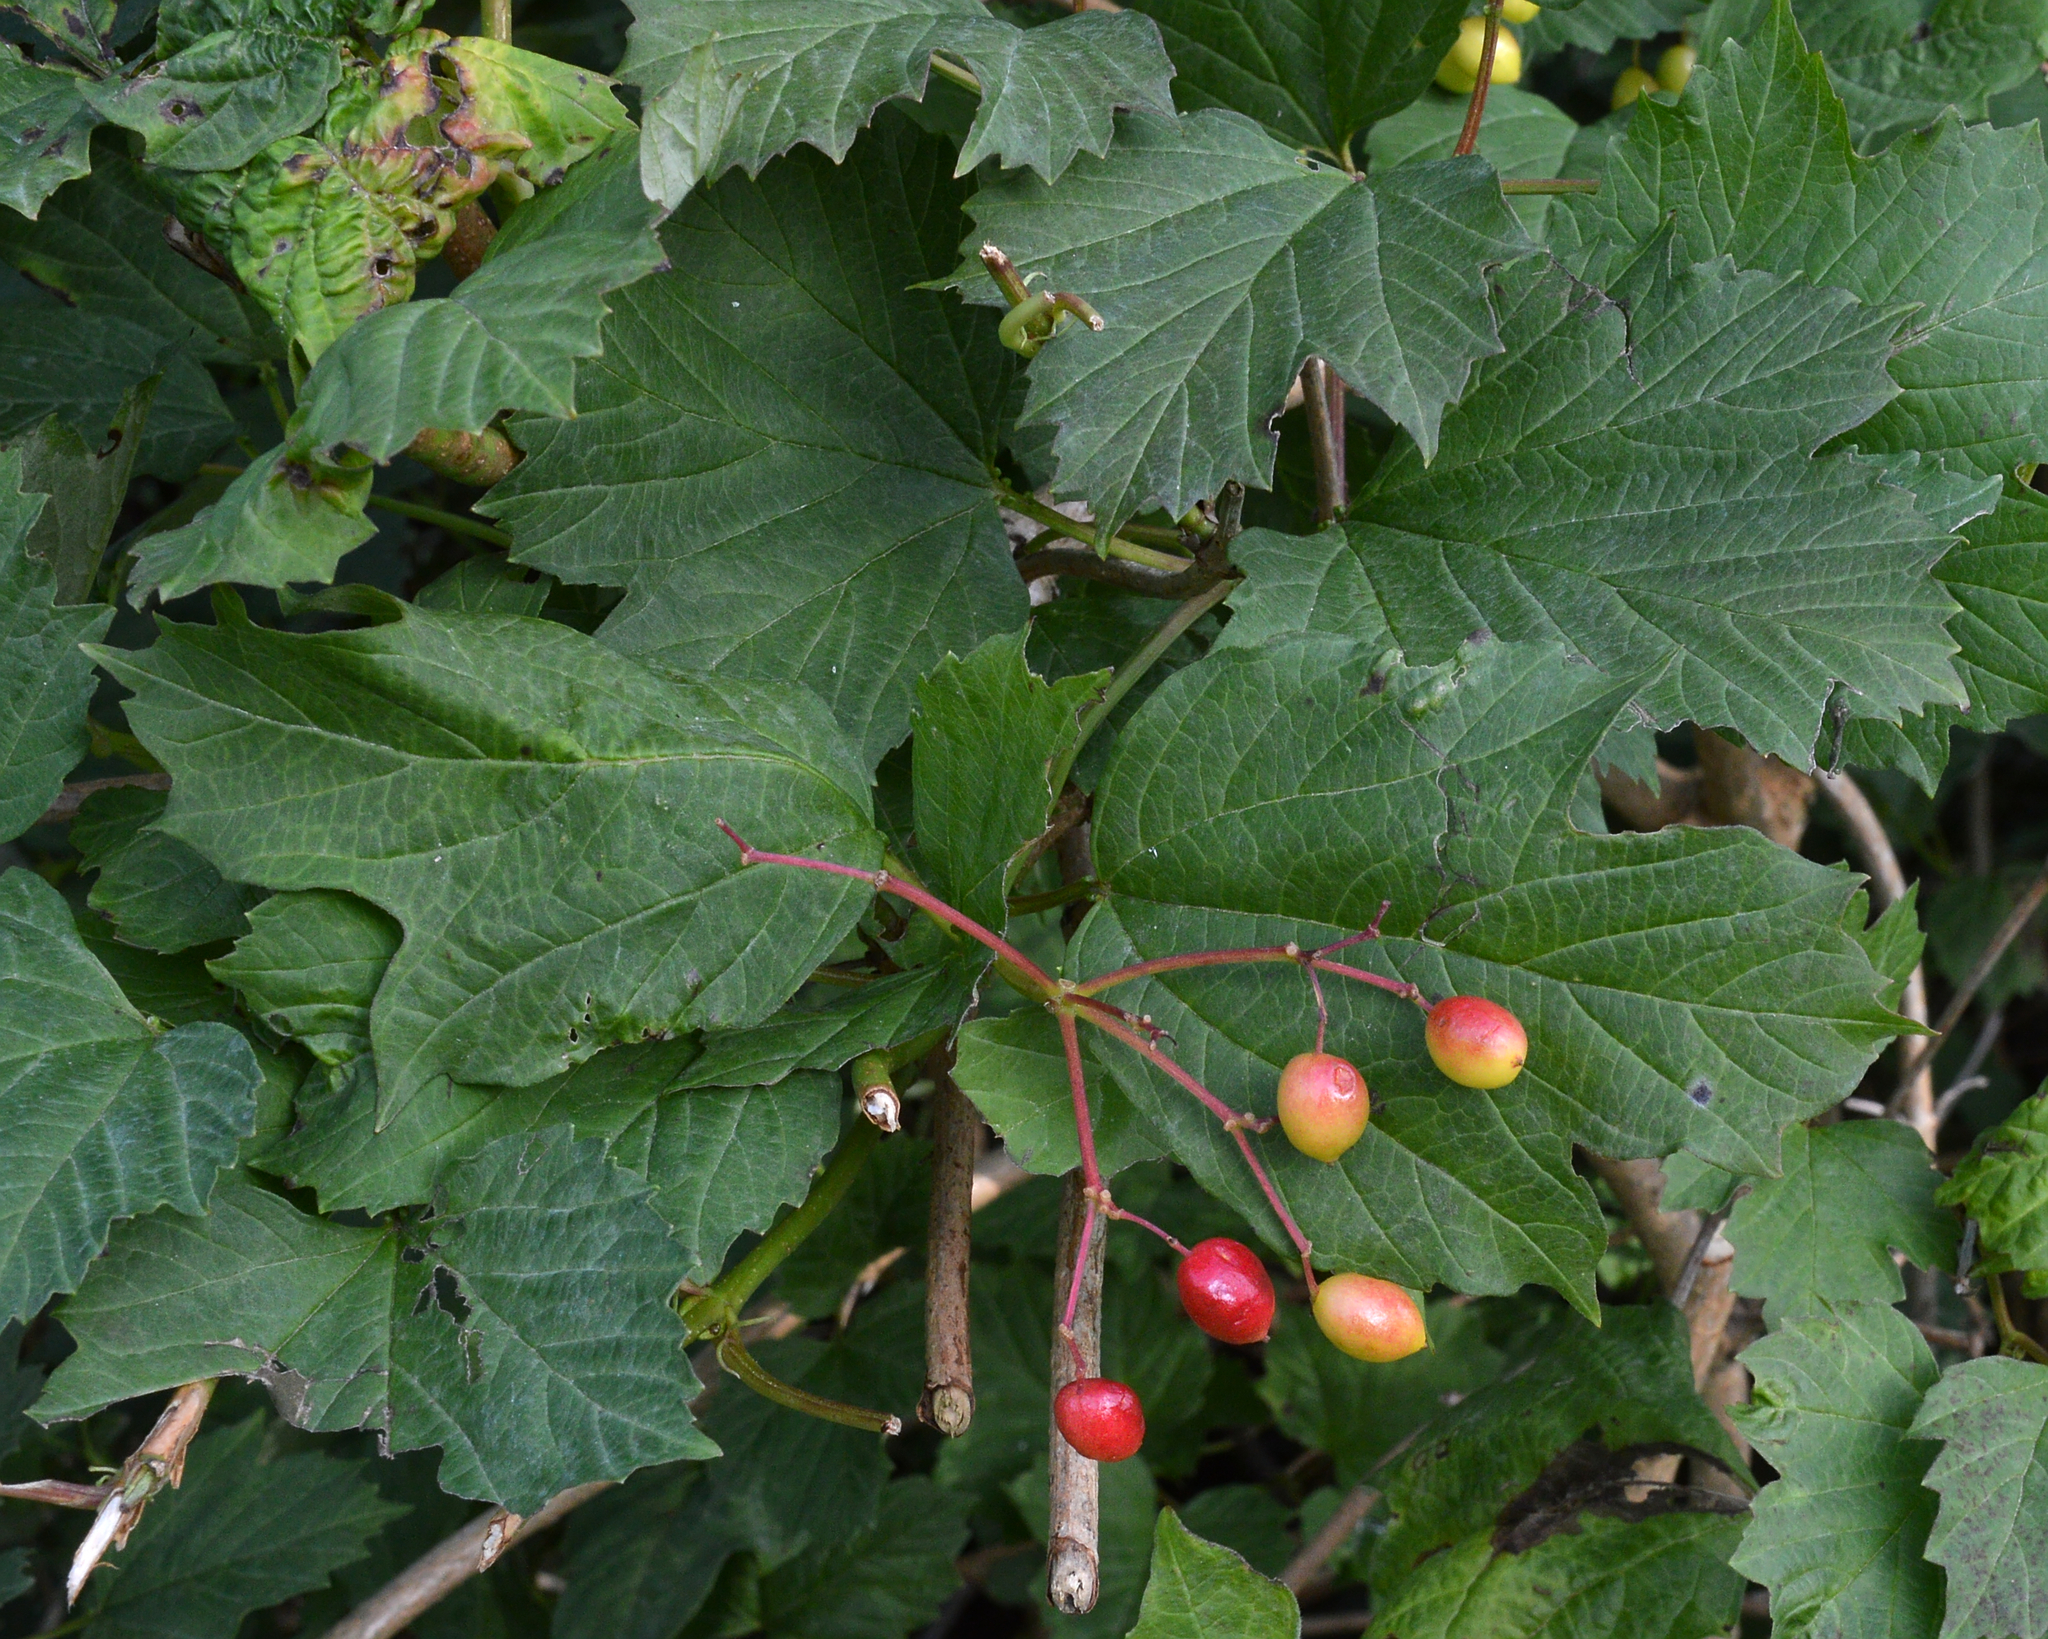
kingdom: Plantae
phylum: Tracheophyta
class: Magnoliopsida
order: Dipsacales
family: Viburnaceae
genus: Viburnum
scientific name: Viburnum opulus
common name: Guelder-rose
